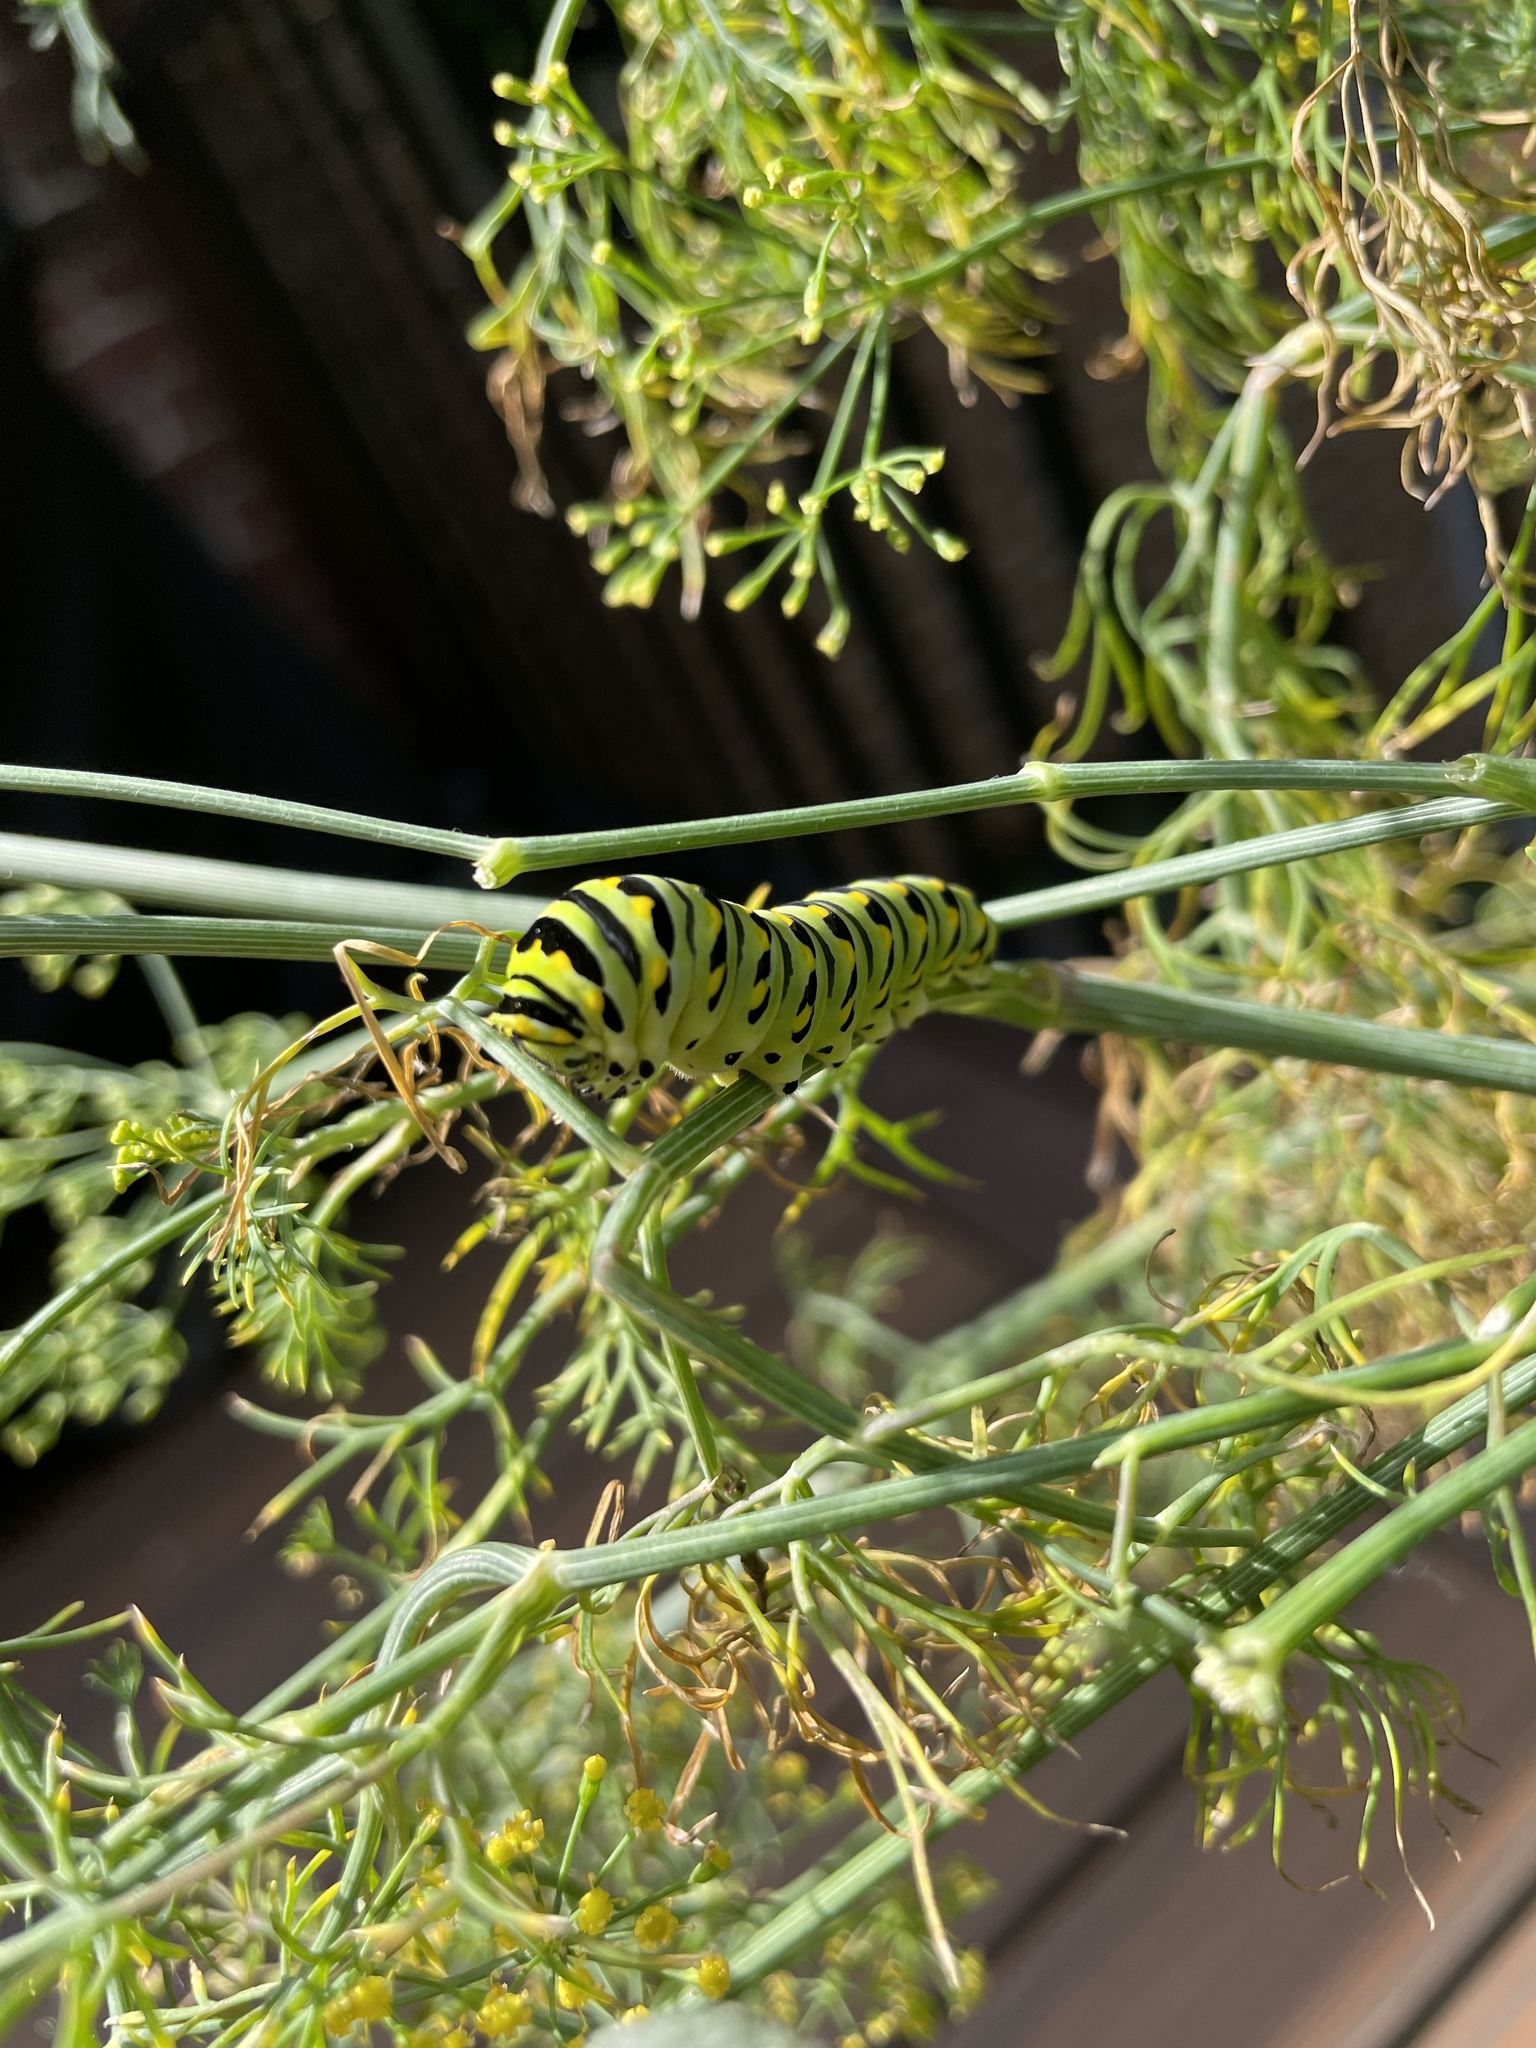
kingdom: Animalia
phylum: Arthropoda
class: Insecta
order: Lepidoptera
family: Papilionidae
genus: Papilio
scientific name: Papilio polyxenes
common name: Black swallowtail
